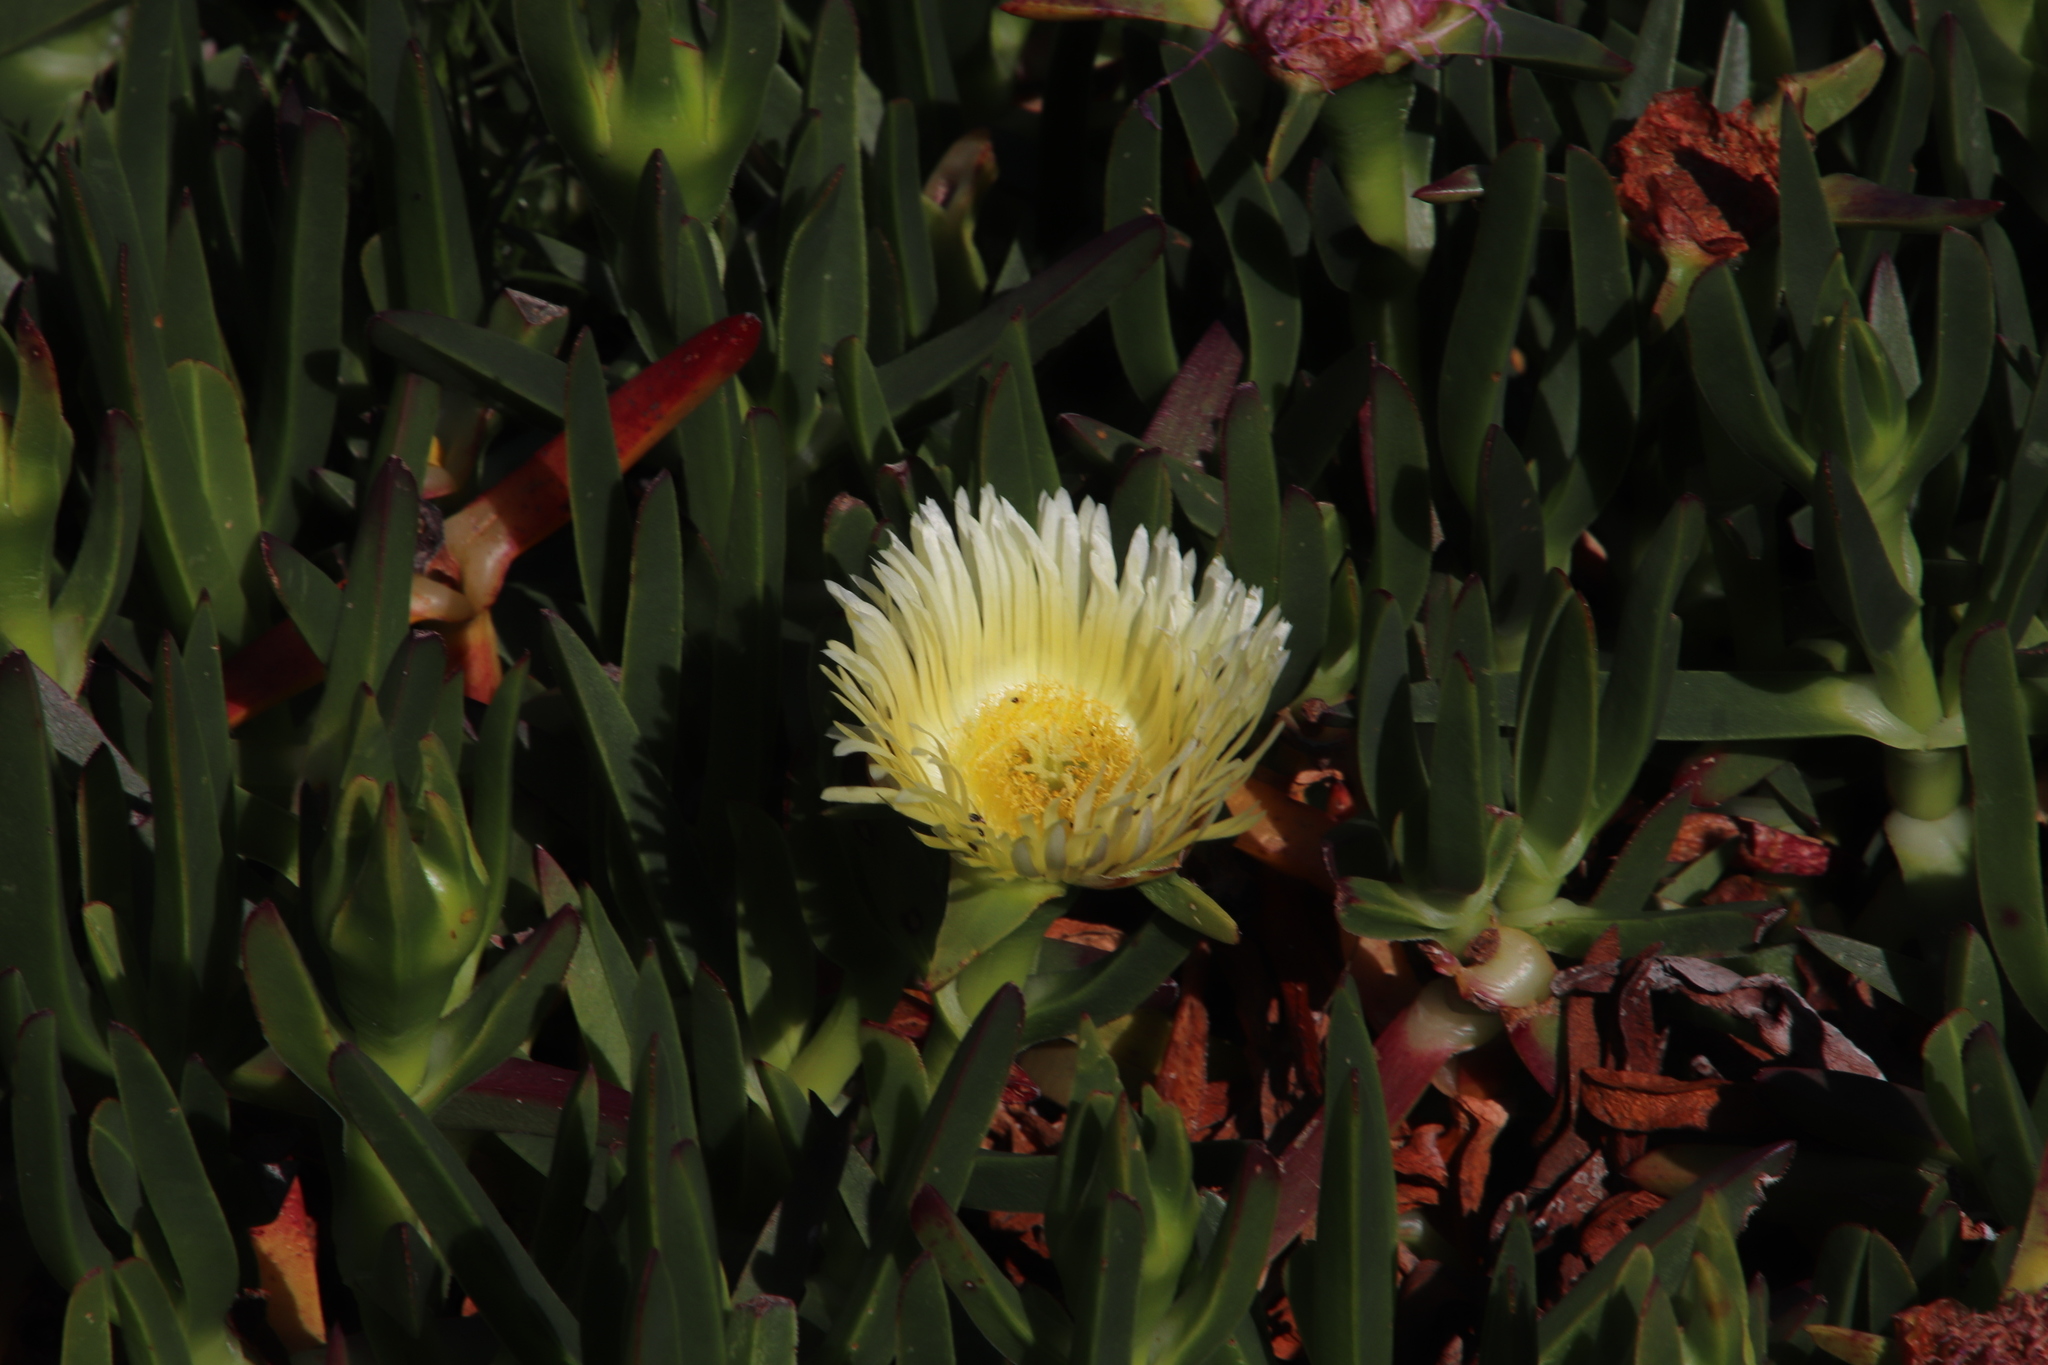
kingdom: Plantae
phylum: Tracheophyta
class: Magnoliopsida
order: Caryophyllales
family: Aizoaceae
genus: Carpobrotus
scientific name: Carpobrotus edulis
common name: Hottentot-fig
